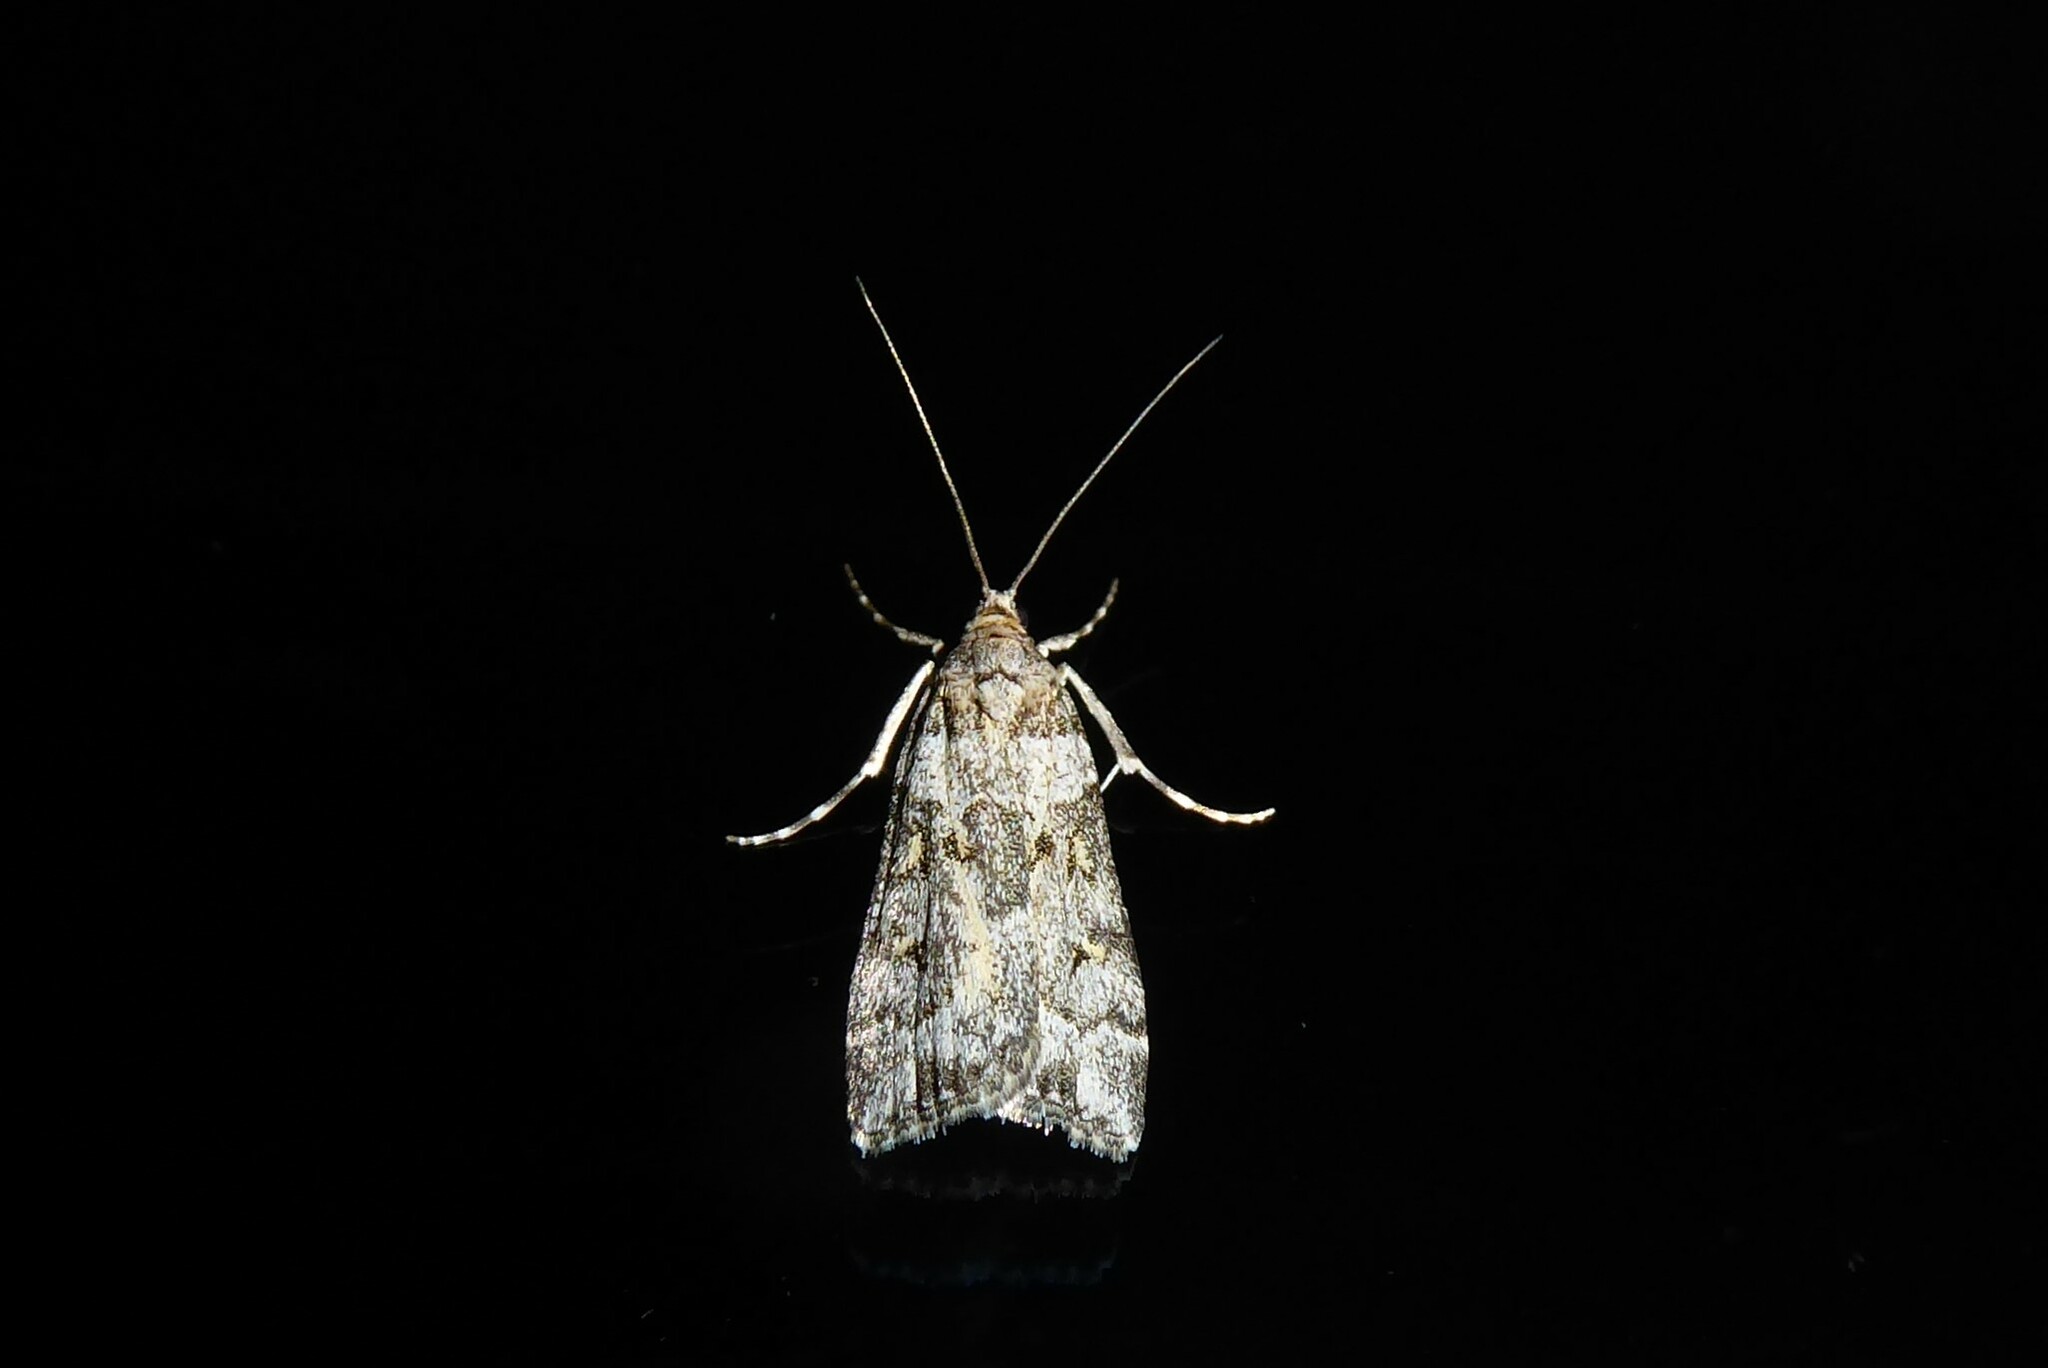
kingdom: Animalia
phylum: Arthropoda
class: Insecta
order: Lepidoptera
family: Crambidae
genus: Scoparia
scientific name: Scoparia tetracycla
